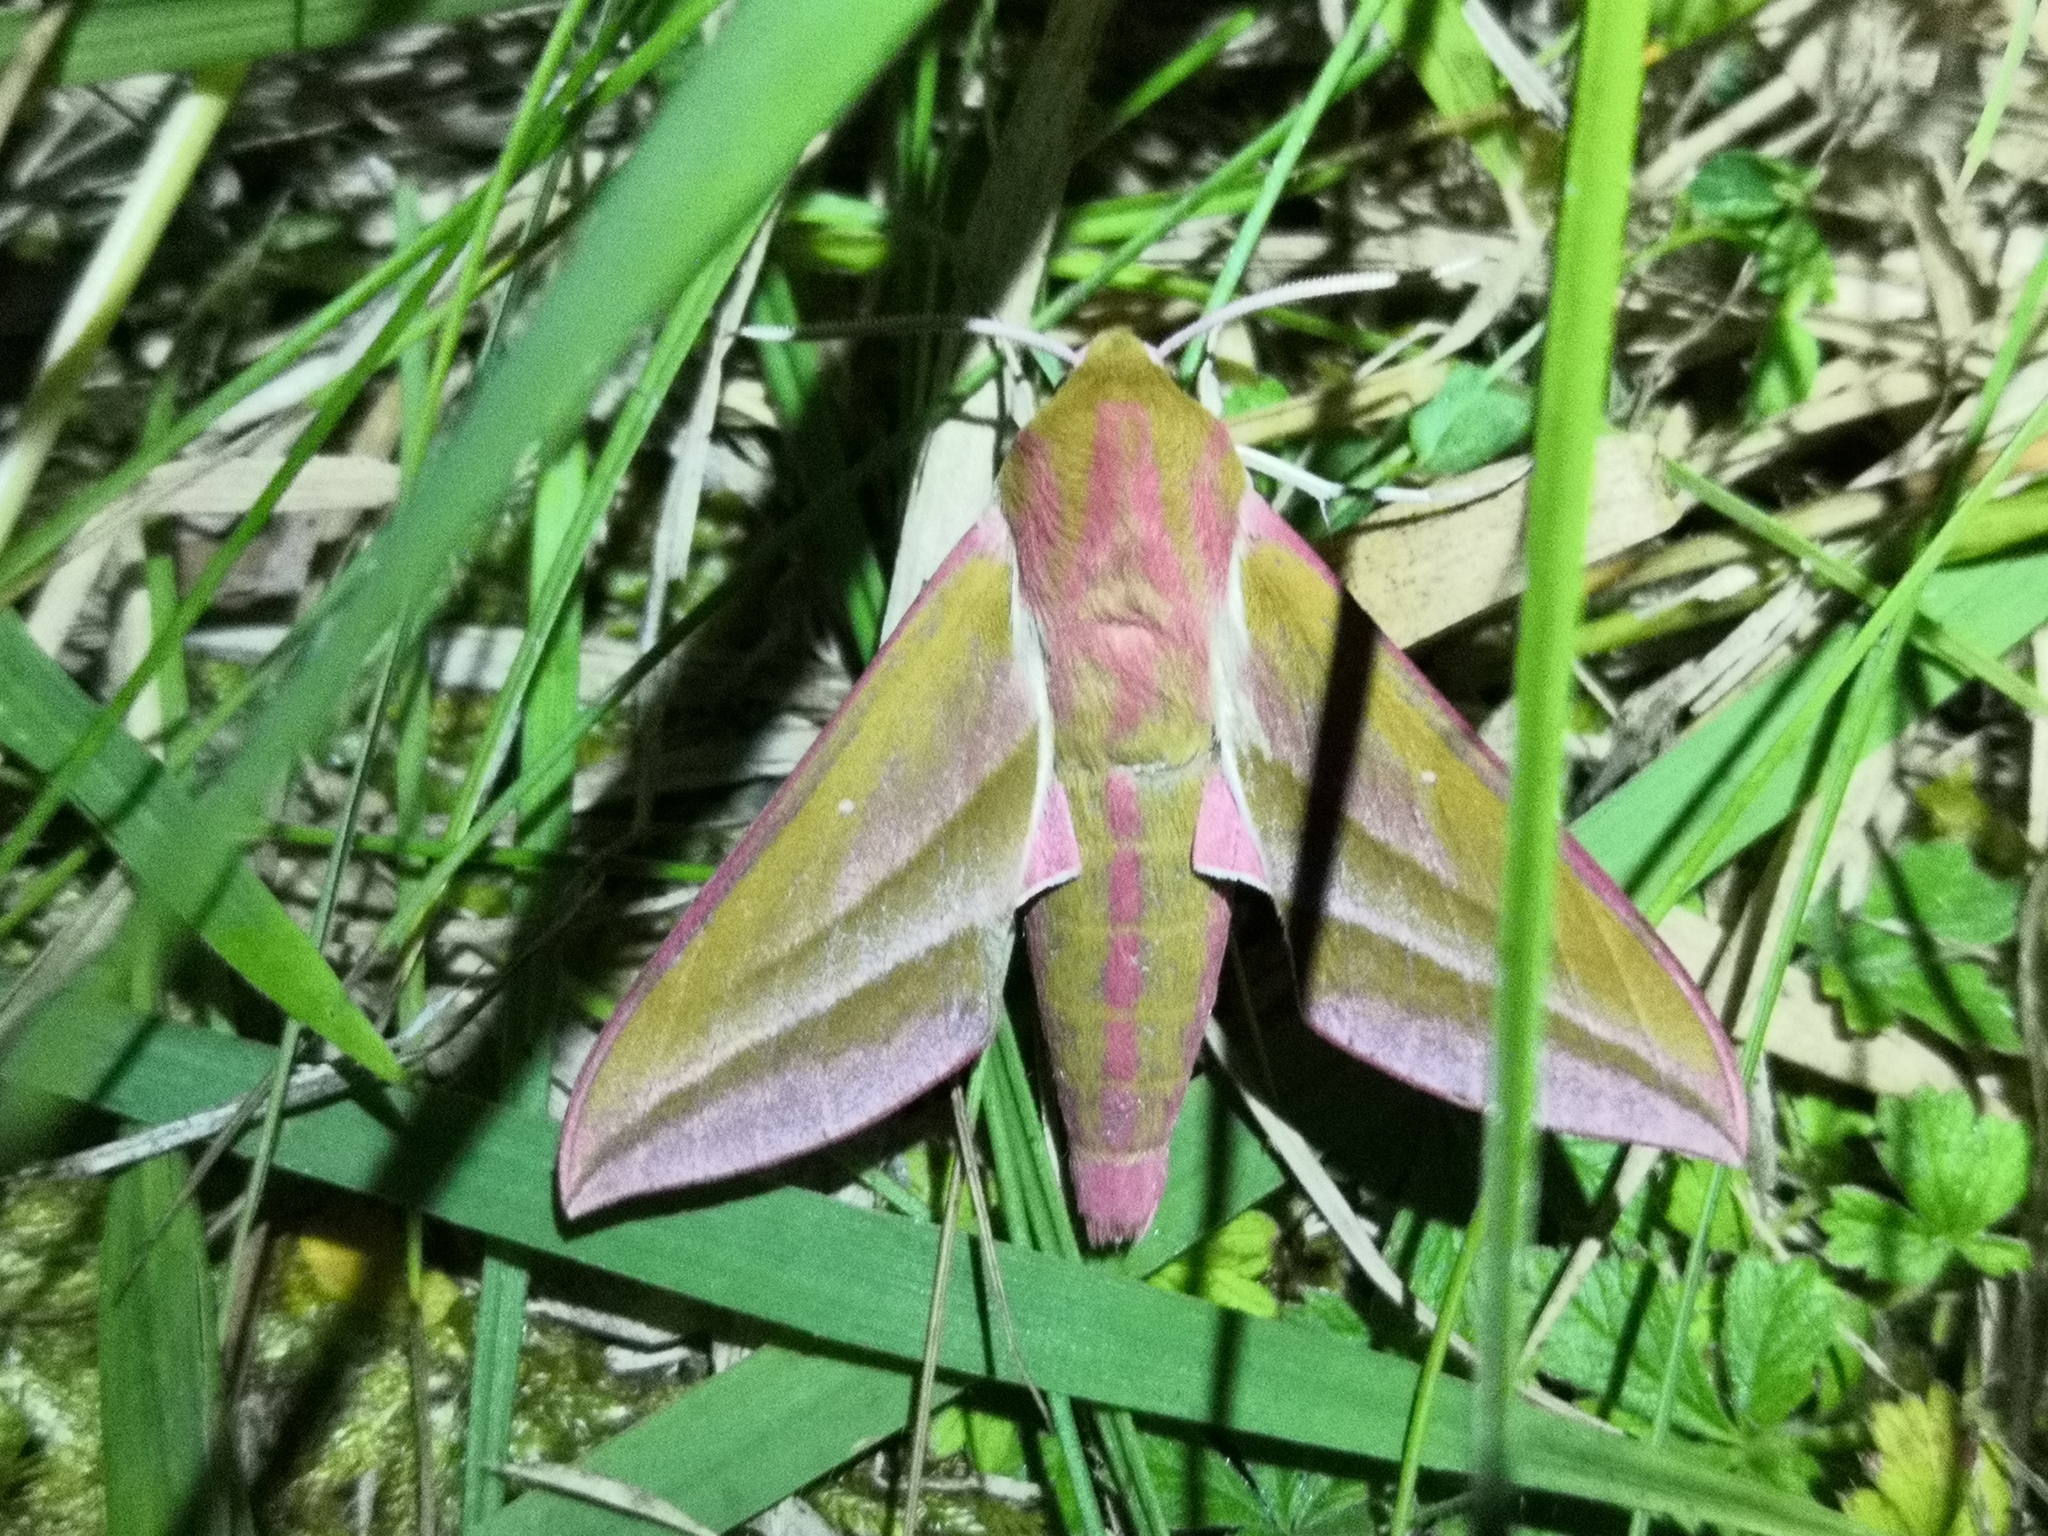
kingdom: Animalia
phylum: Arthropoda
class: Insecta
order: Lepidoptera
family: Sphingidae
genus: Deilephila
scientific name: Deilephila elpenor
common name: Elephant hawk-moth
